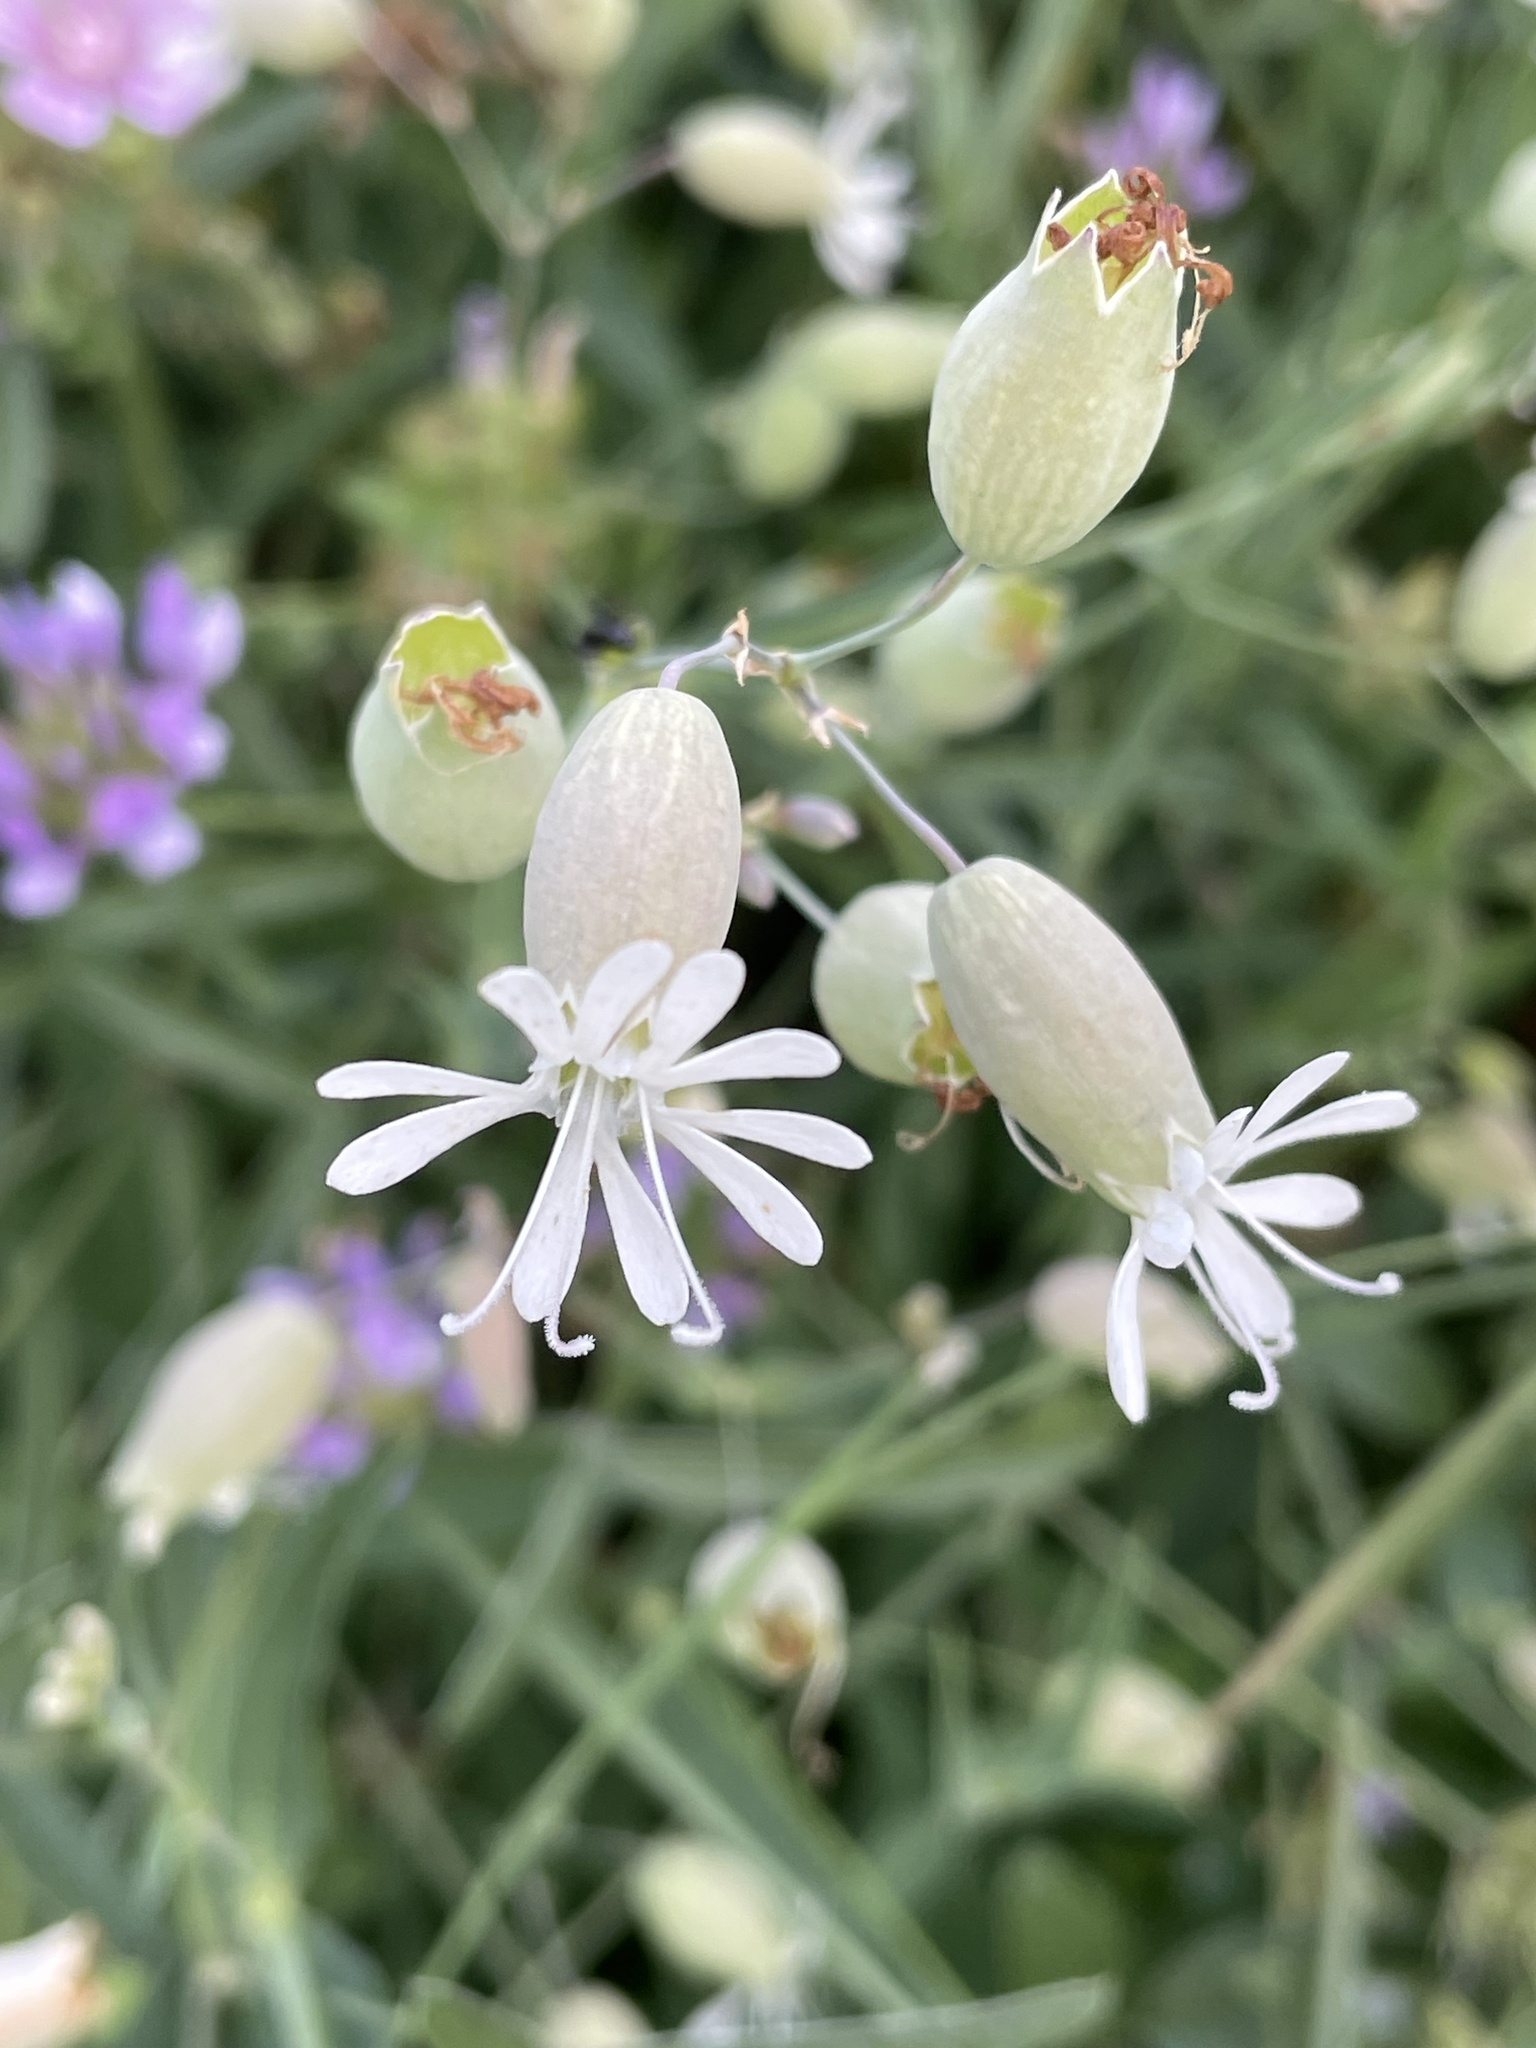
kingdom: Plantae
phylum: Tracheophyta
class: Magnoliopsida
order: Caryophyllales
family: Caryophyllaceae
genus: Silene
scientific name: Silene vulgaris
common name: Bladder campion
